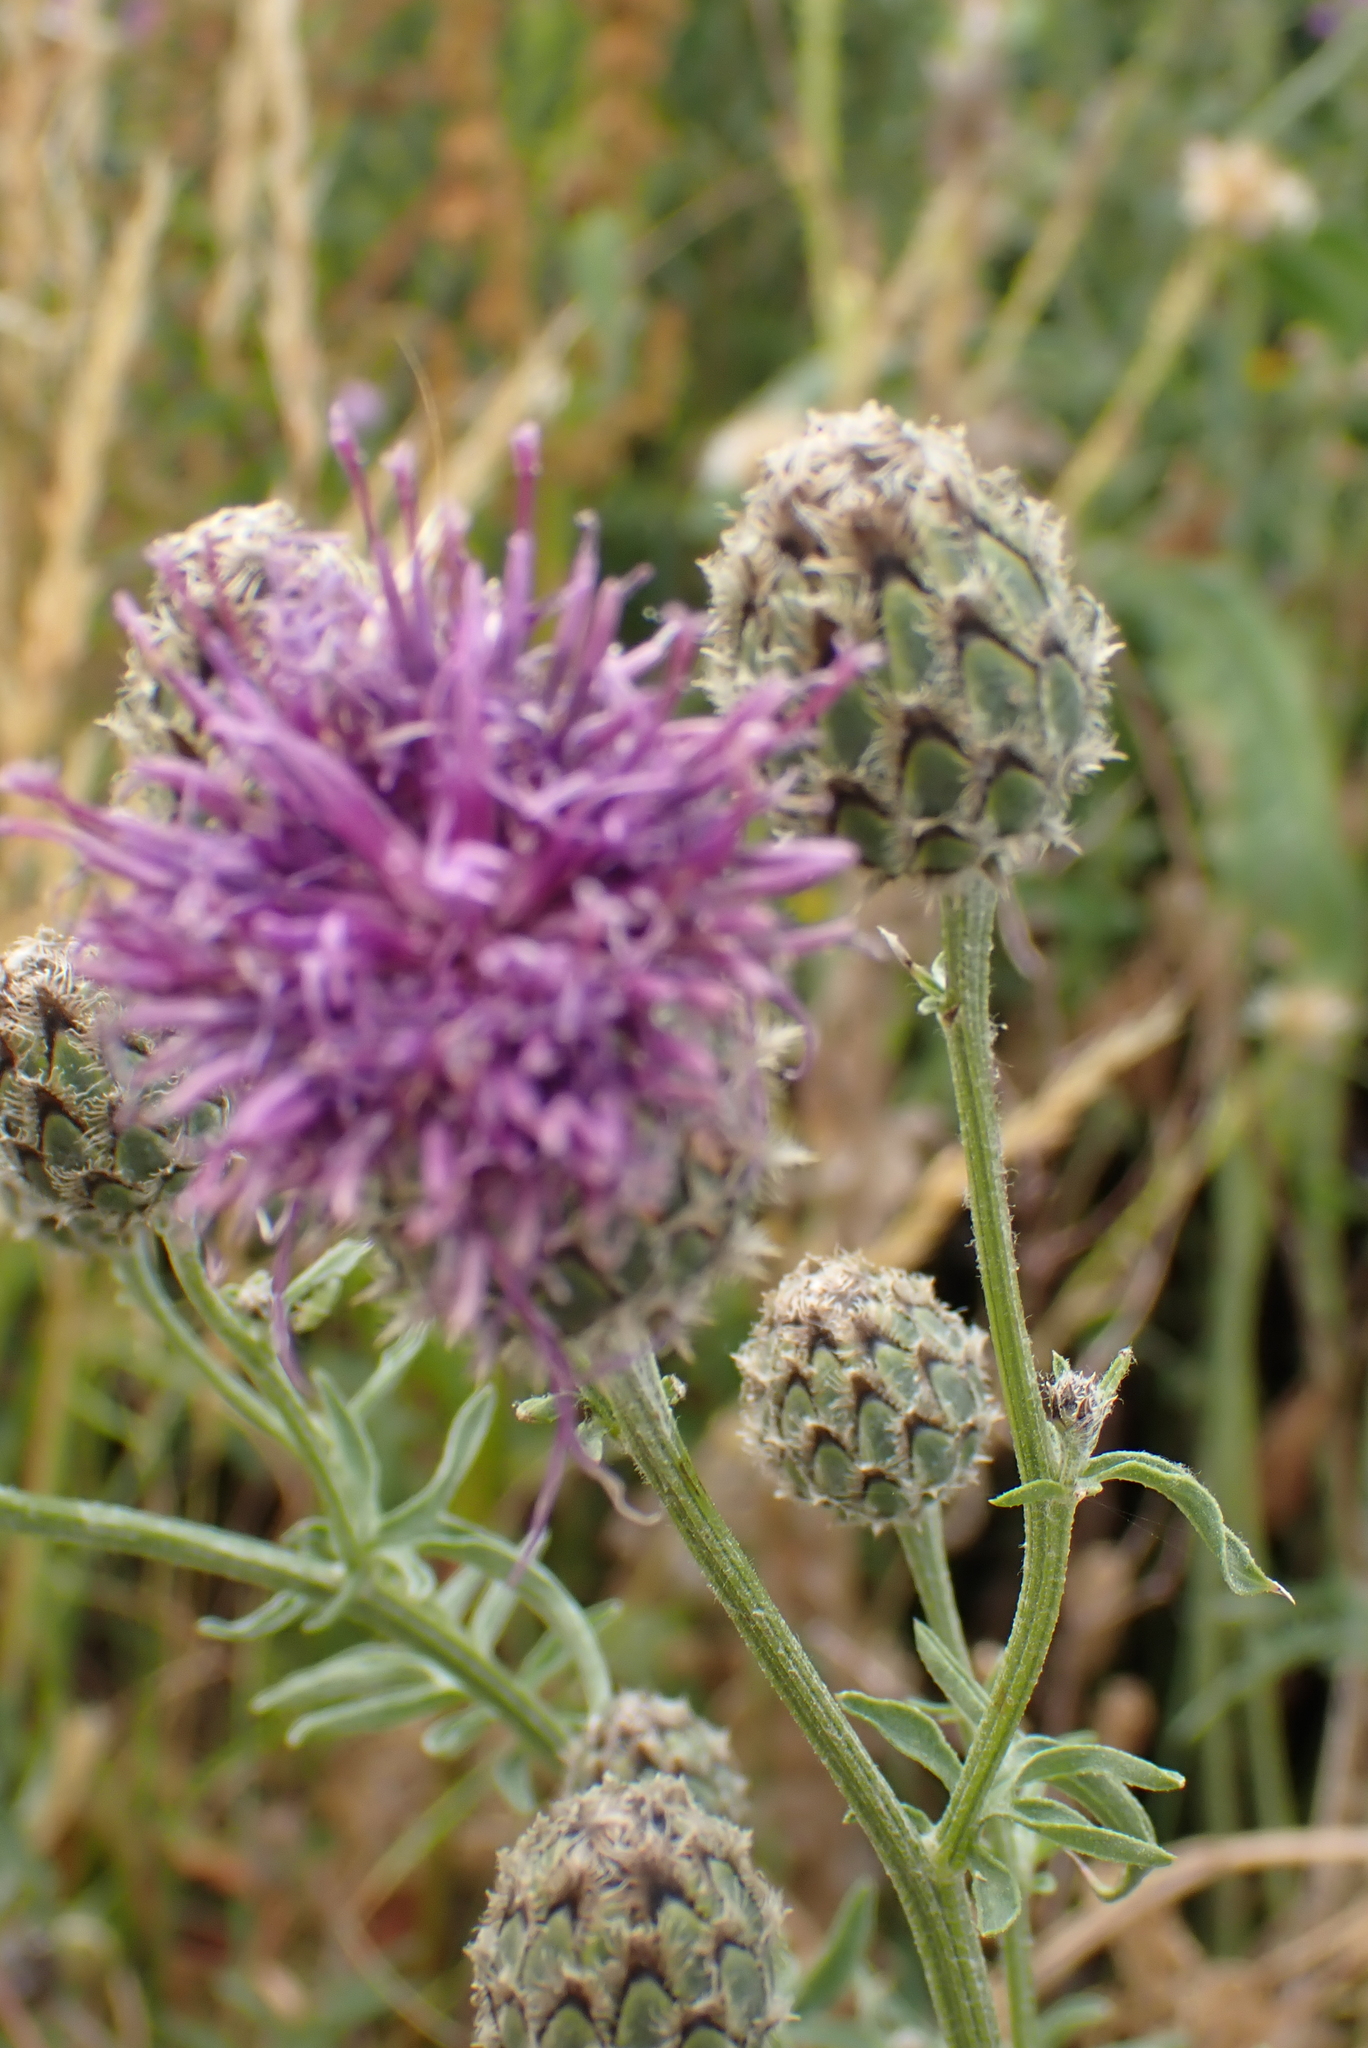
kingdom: Plantae
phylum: Tracheophyta
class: Magnoliopsida
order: Asterales
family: Asteraceae
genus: Centaurea
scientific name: Centaurea scabiosa
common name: Greater knapweed
